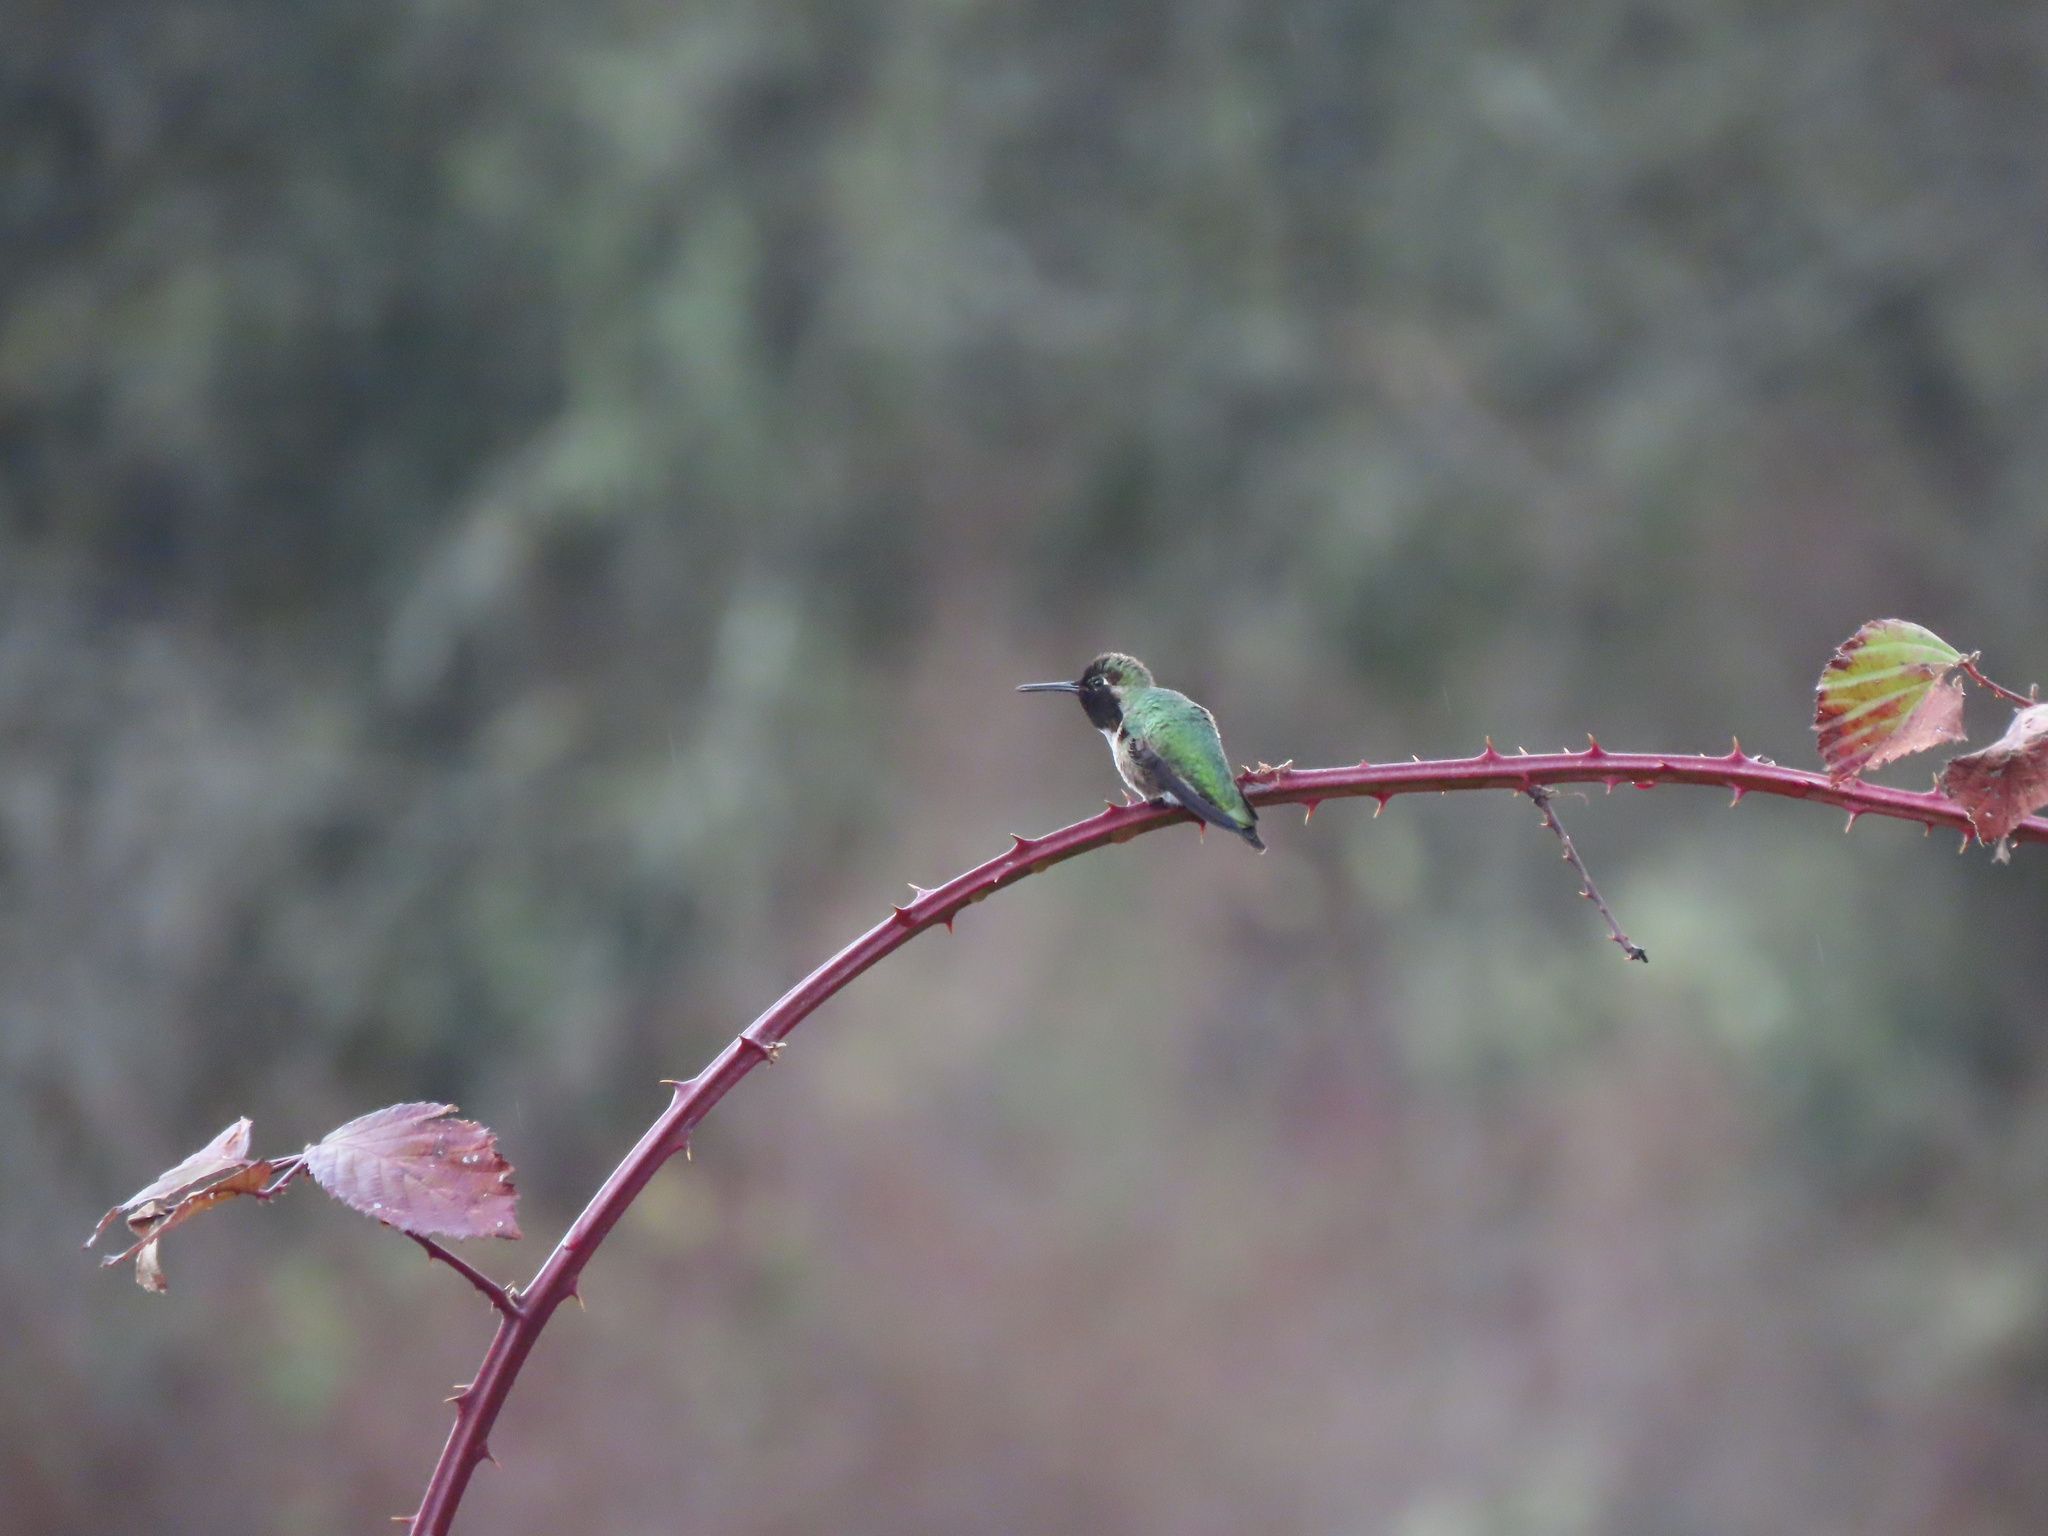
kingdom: Animalia
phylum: Chordata
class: Aves
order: Apodiformes
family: Trochilidae
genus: Calypte
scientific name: Calypte anna
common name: Anna's hummingbird
